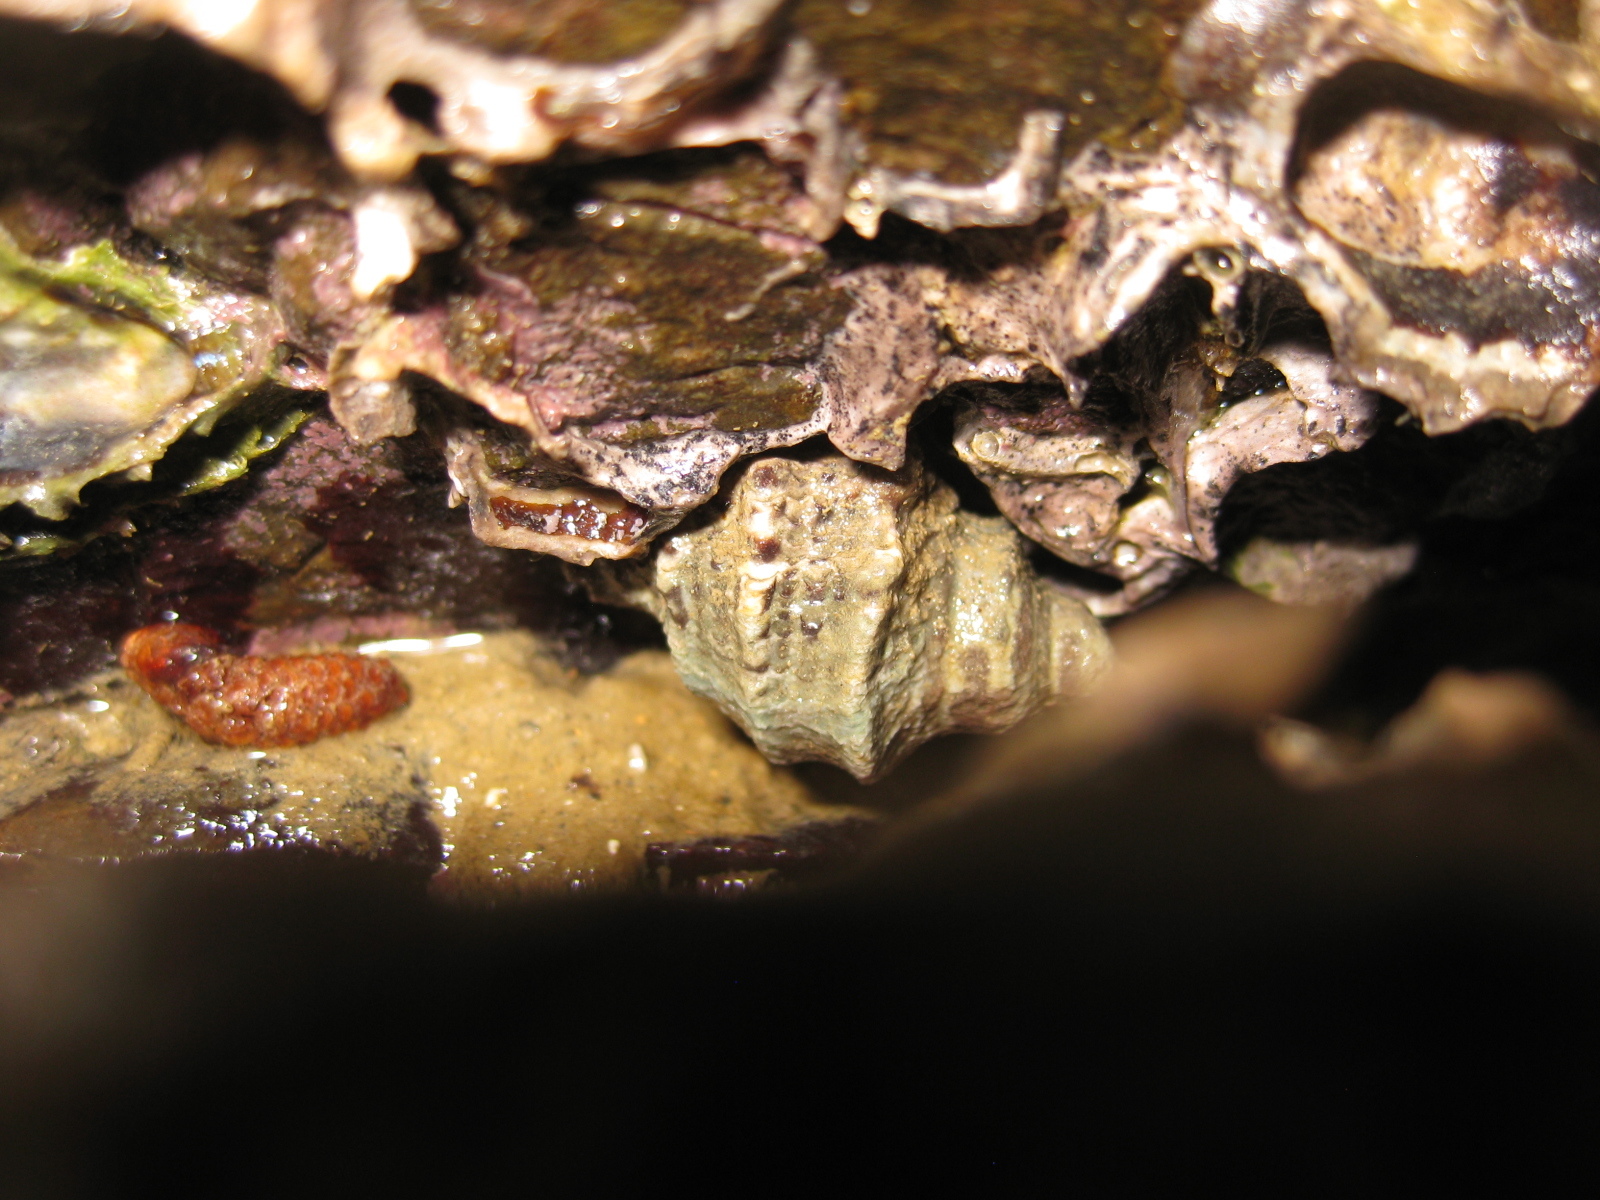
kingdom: Animalia
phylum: Mollusca
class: Gastropoda
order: Neogastropoda
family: Muricidae
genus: Haustrum
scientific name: Haustrum scobina
